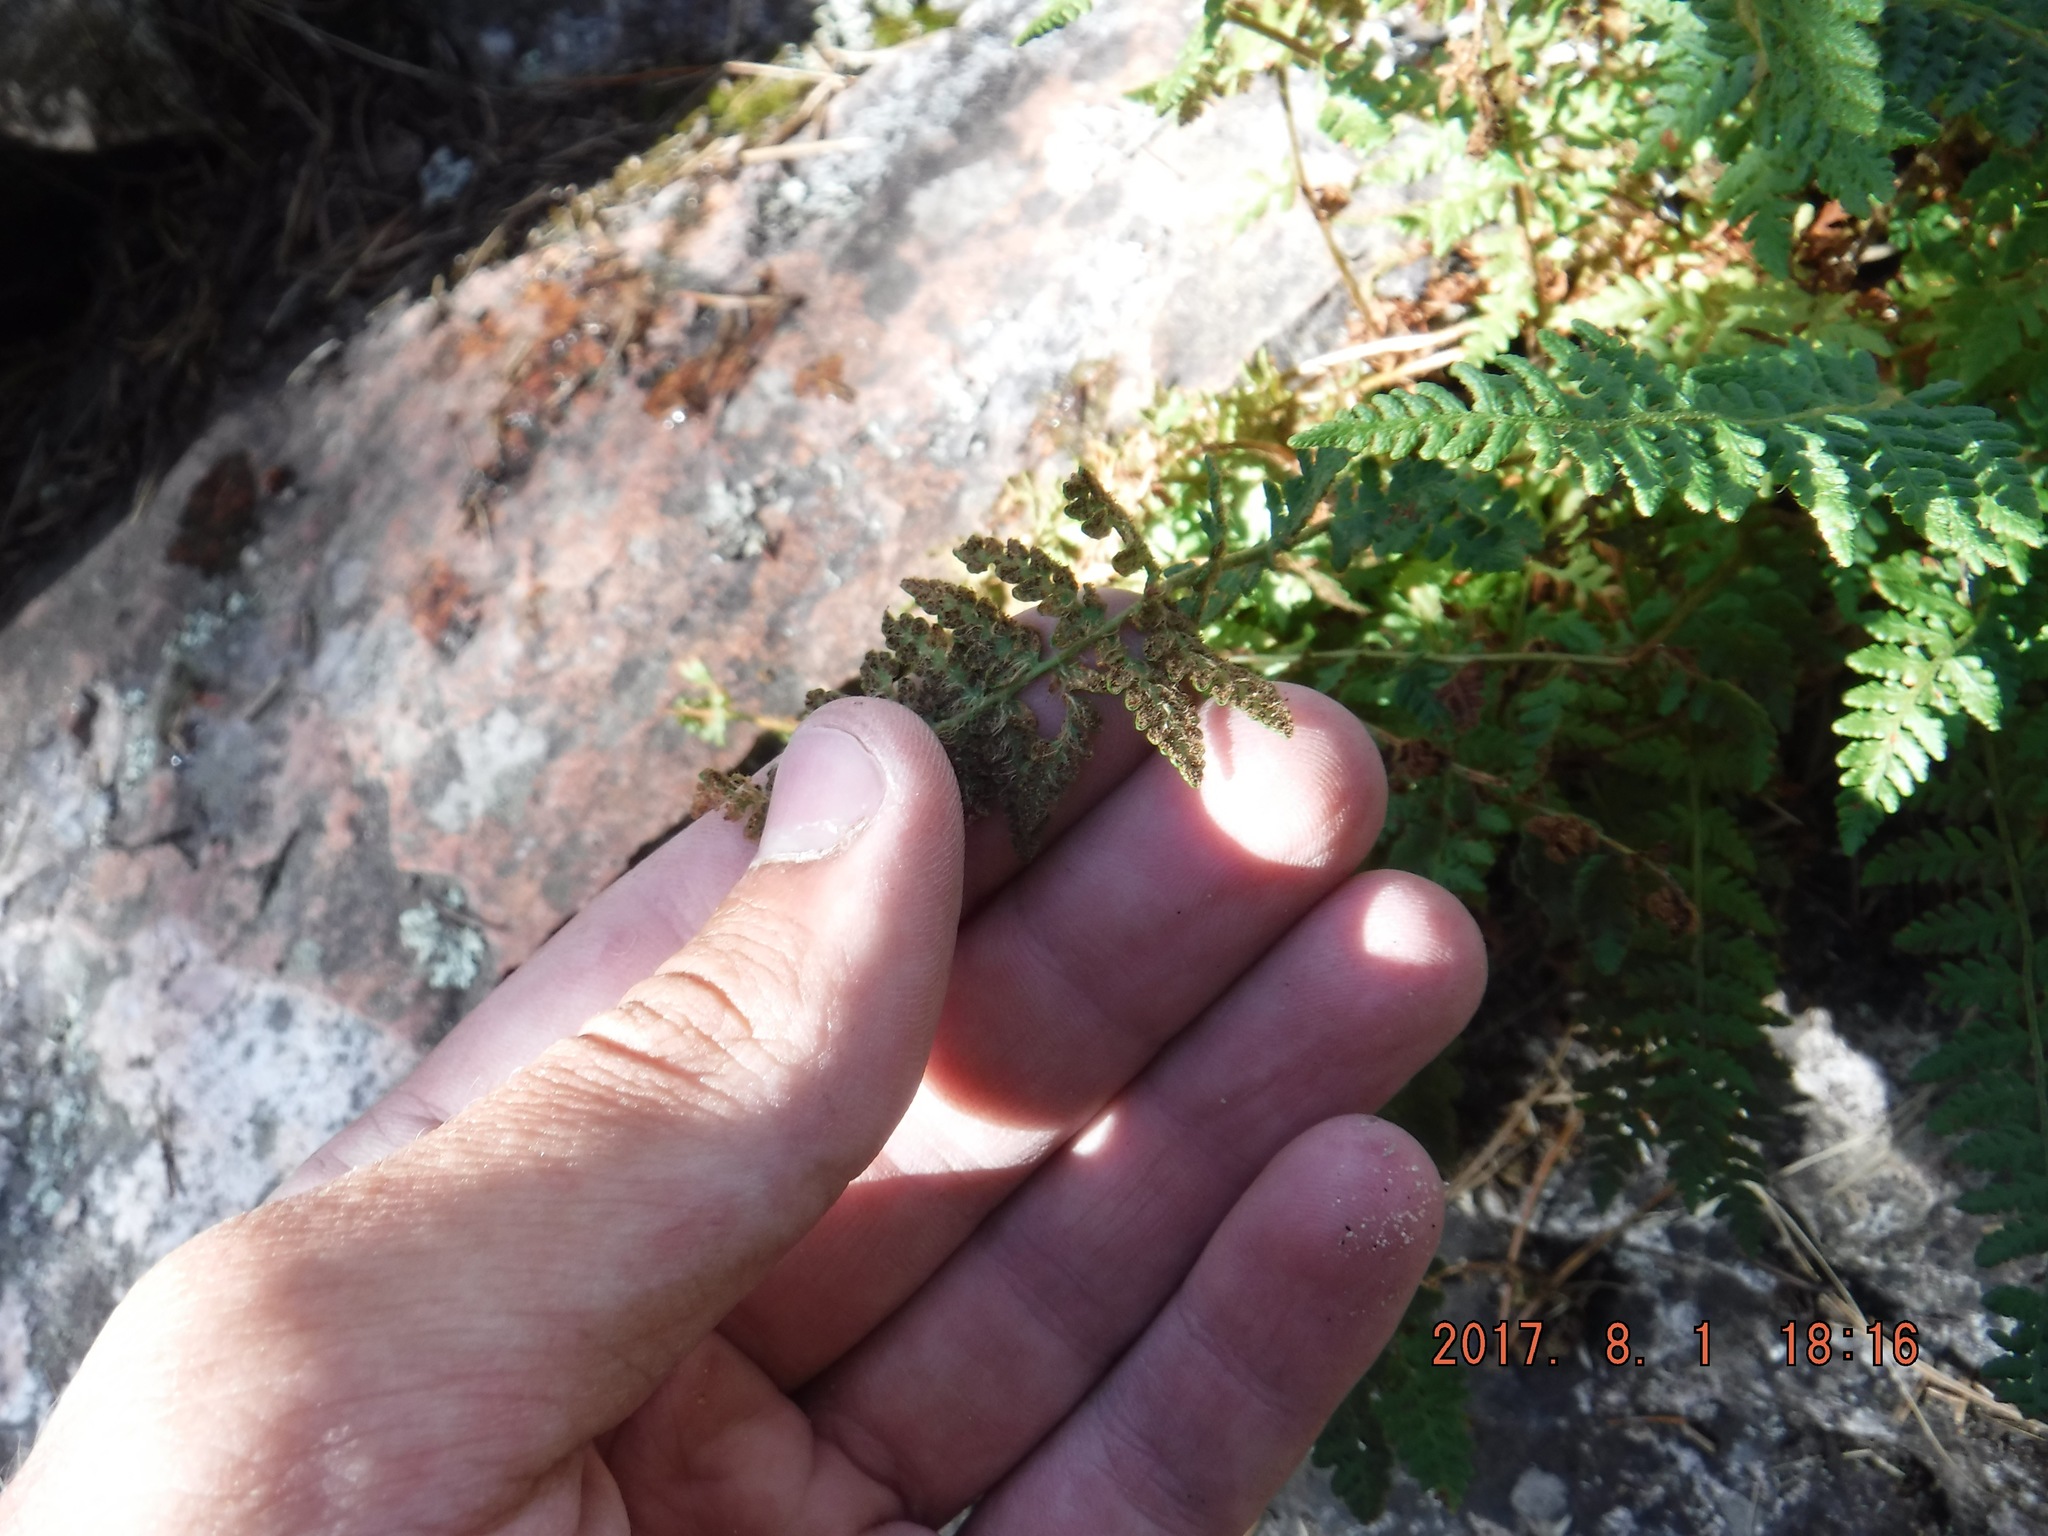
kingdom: Plantae
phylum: Tracheophyta
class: Polypodiopsida
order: Polypodiales
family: Woodsiaceae
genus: Woodsia
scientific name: Woodsia ilvensis
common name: Fragrant woodsia
